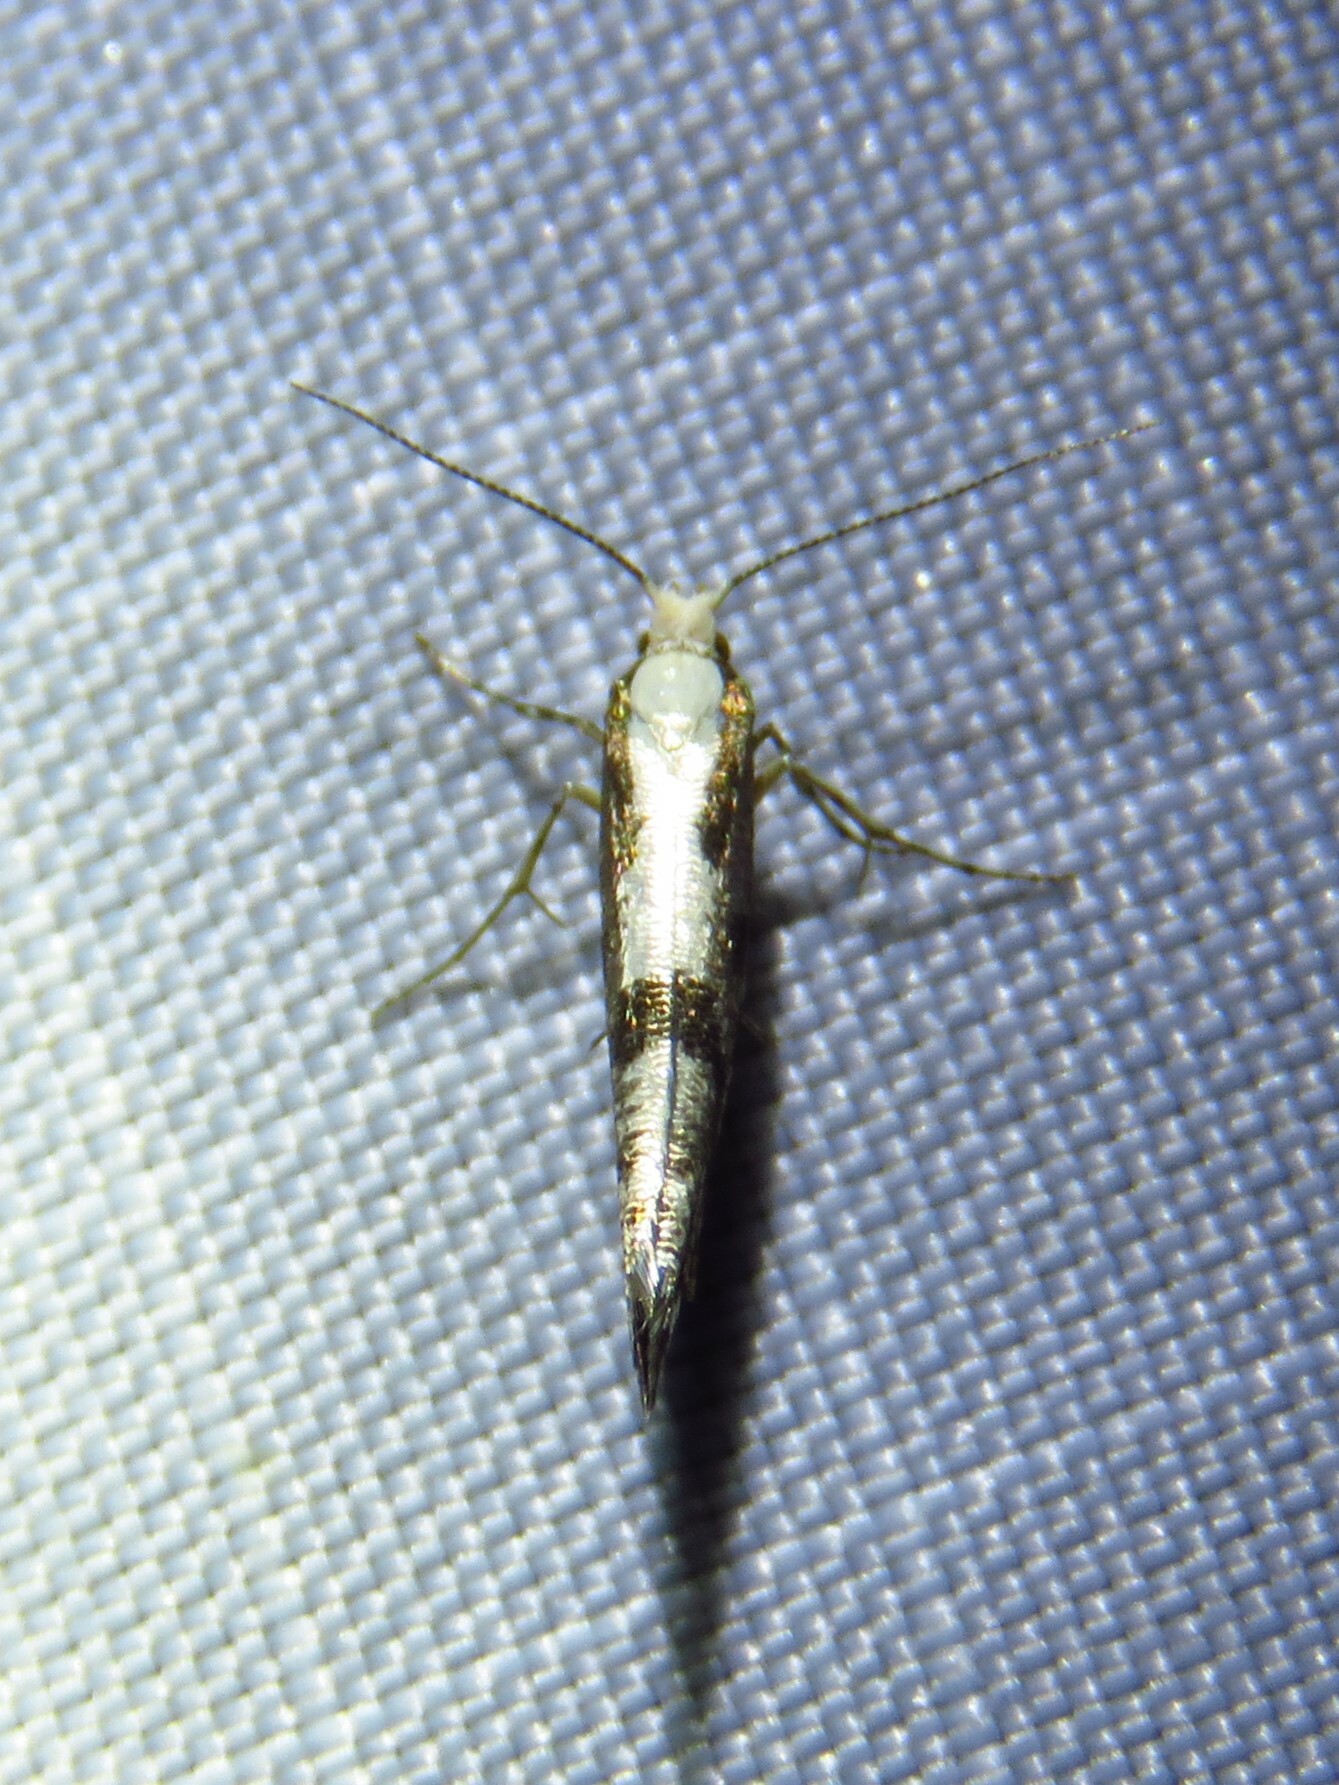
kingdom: Animalia
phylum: Arthropoda
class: Insecta
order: Lepidoptera
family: Argyresthiidae
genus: Argyresthia
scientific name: Argyresthia conjugella
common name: Apple fruit moth
